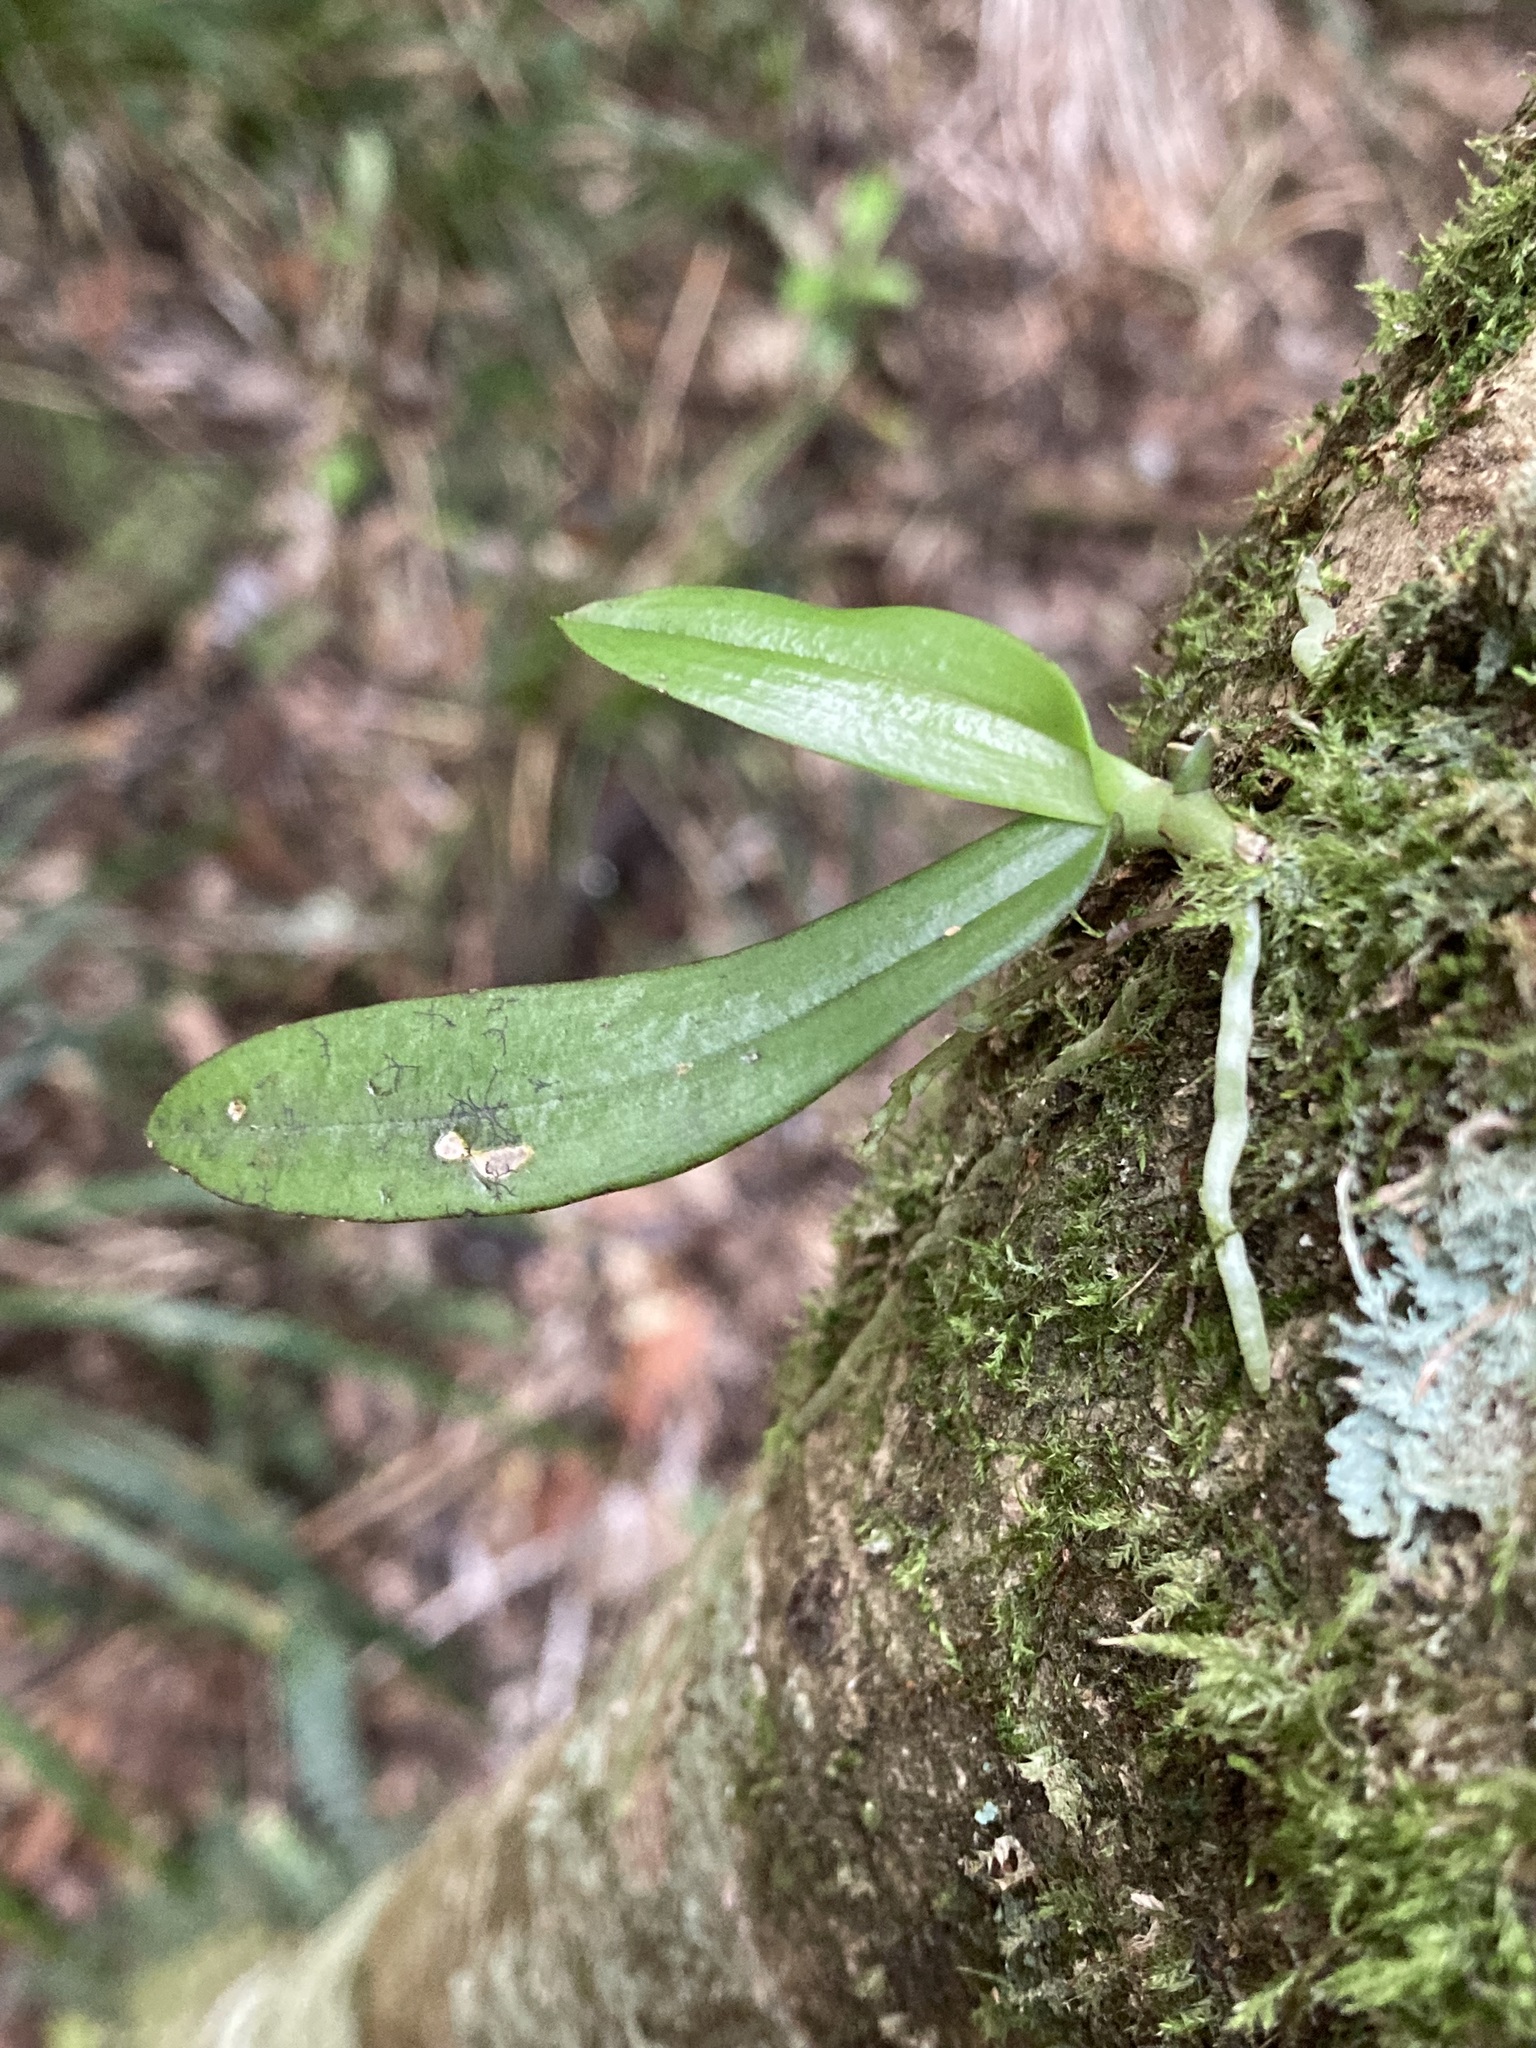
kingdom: Plantae
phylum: Tracheophyta
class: Liliopsida
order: Asparagales
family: Orchidaceae
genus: Drymoanthus
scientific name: Drymoanthus adversus
